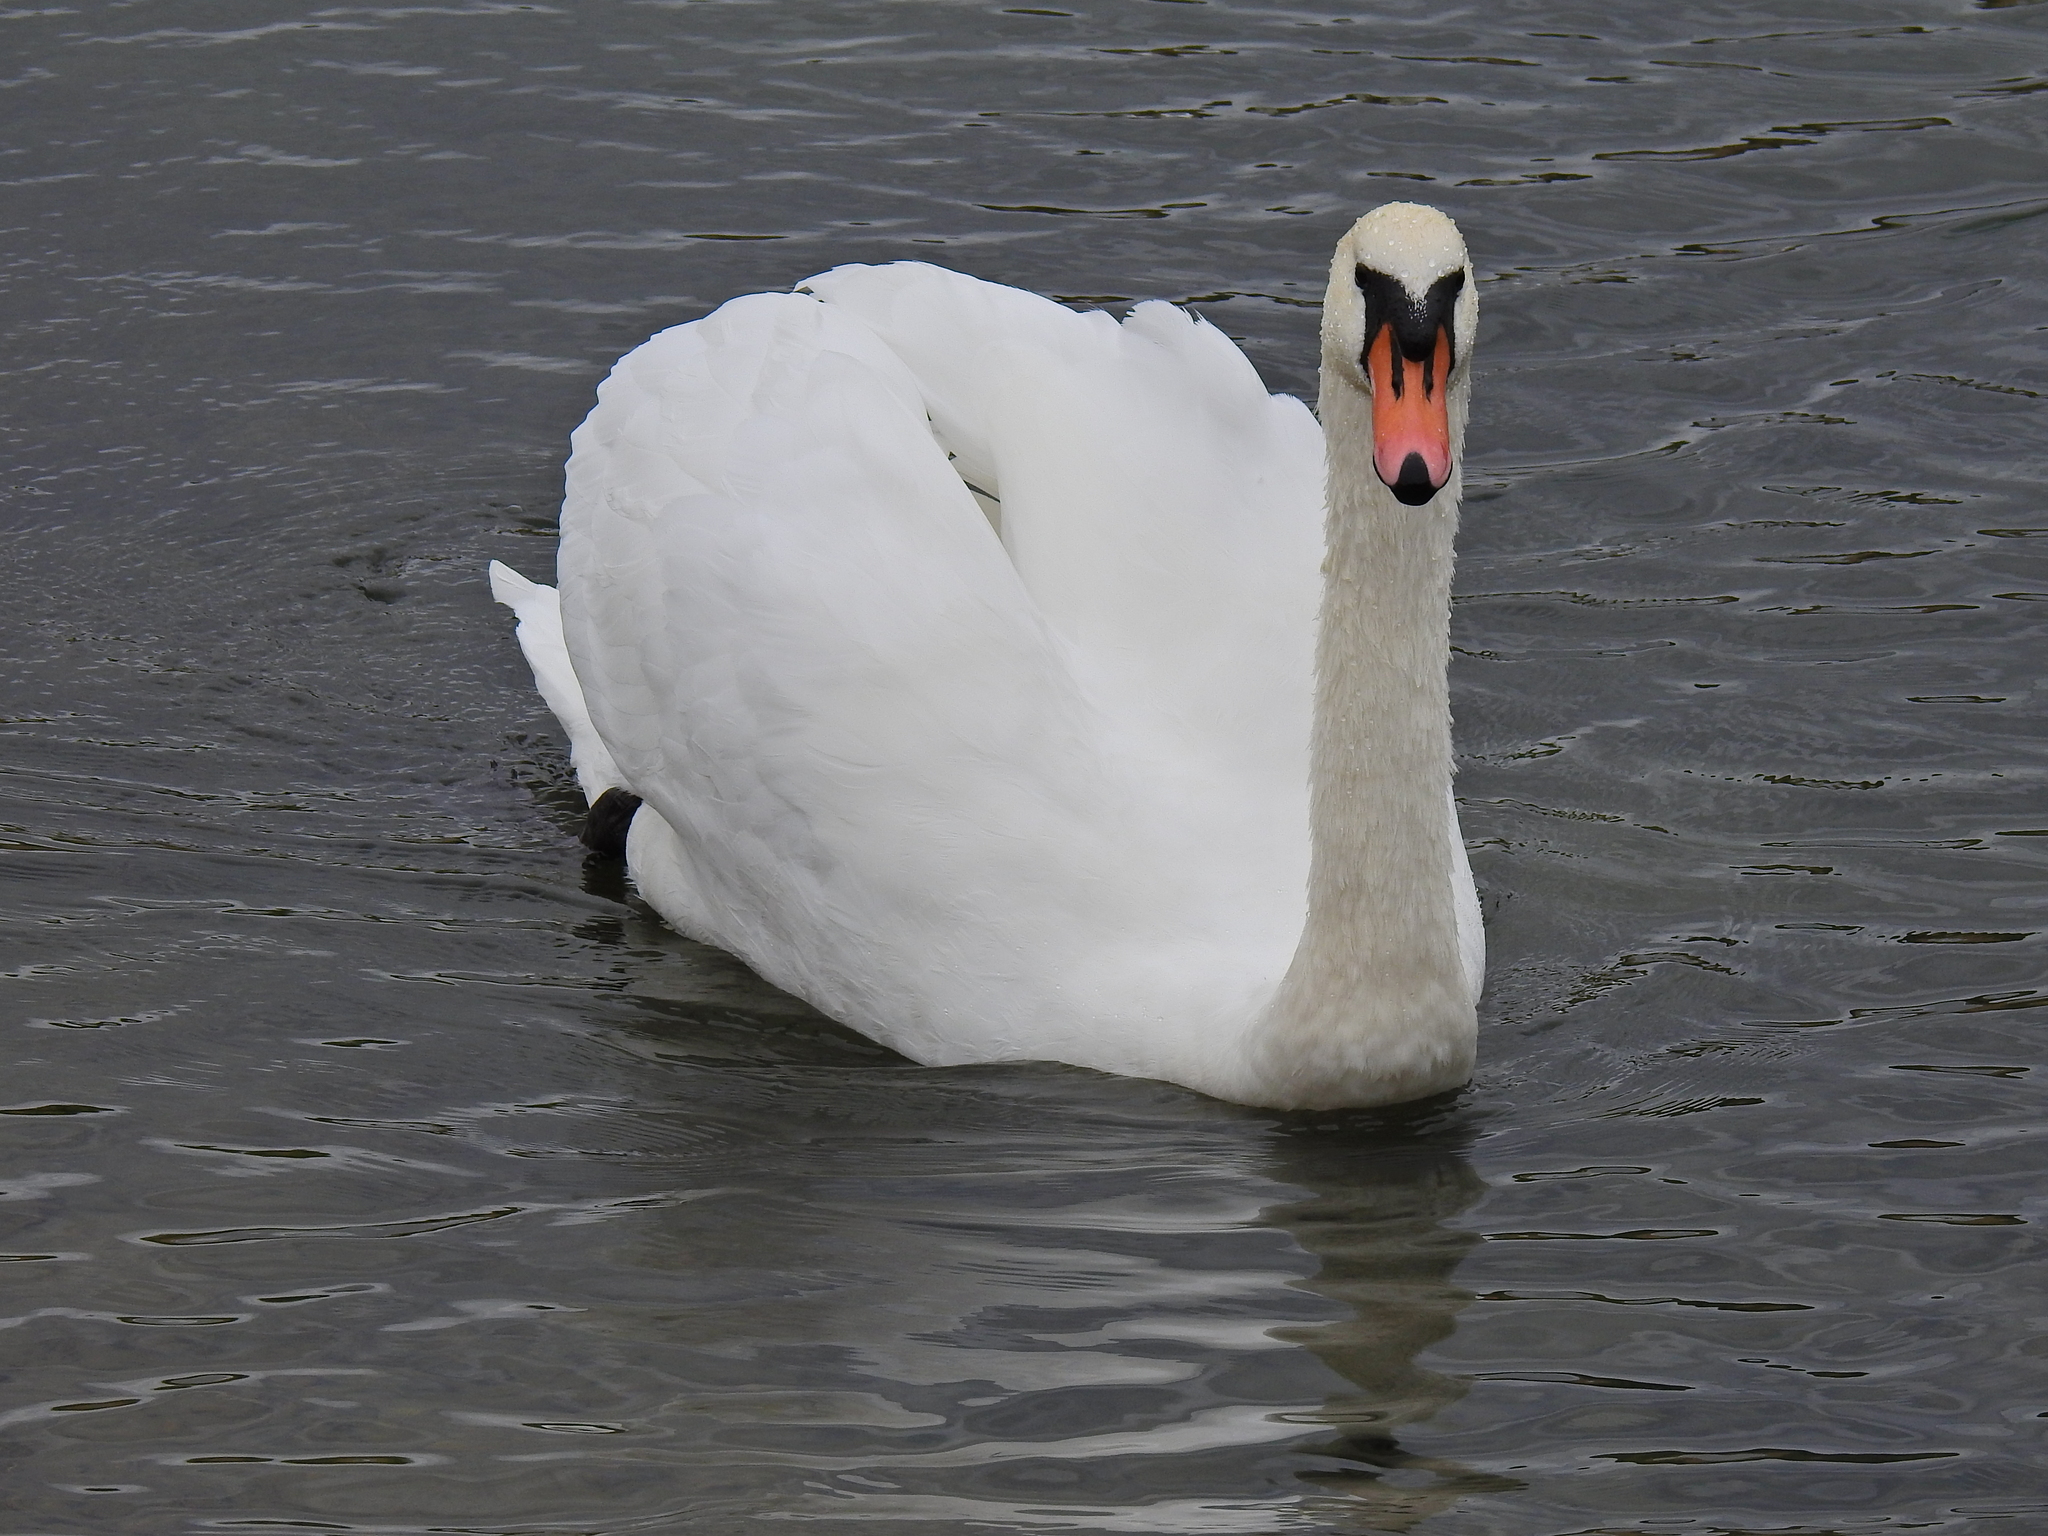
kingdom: Animalia
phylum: Chordata
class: Aves
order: Anseriformes
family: Anatidae
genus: Cygnus
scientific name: Cygnus olor
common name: Mute swan
